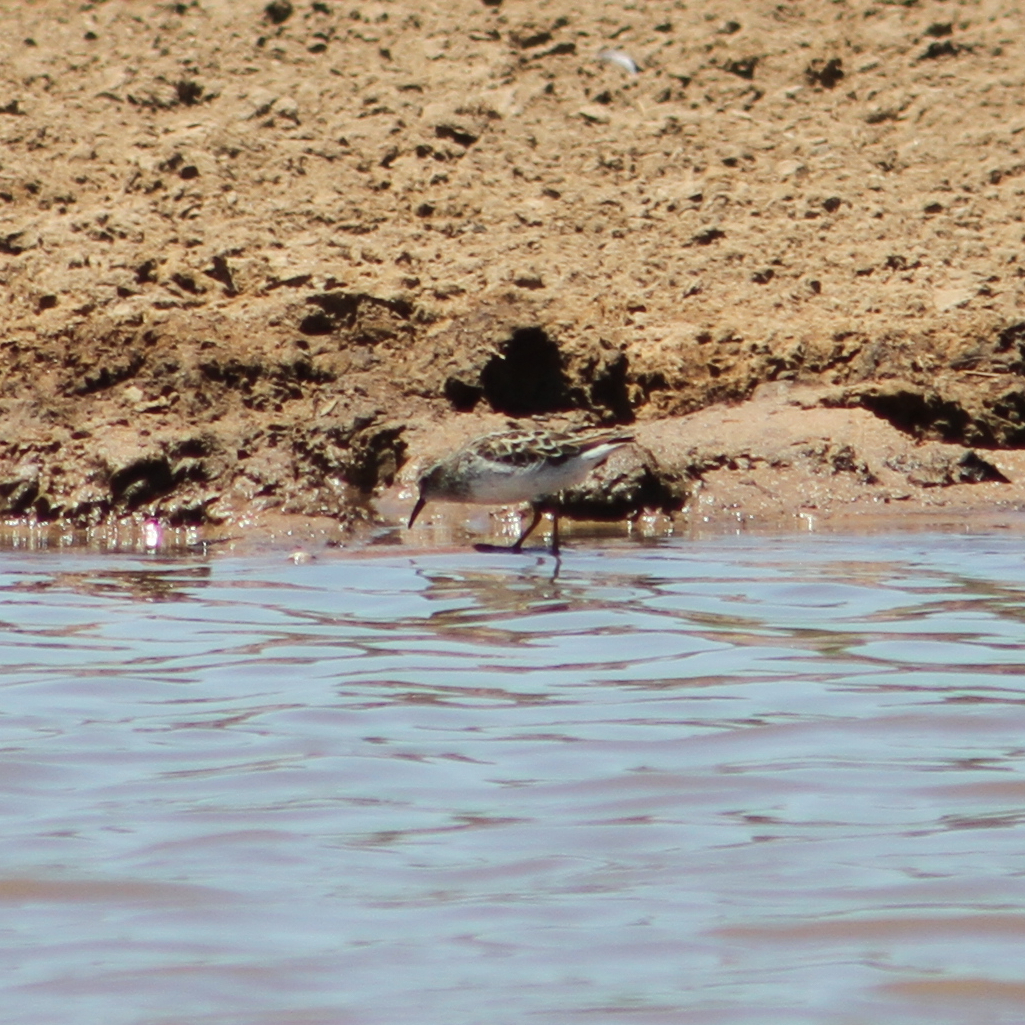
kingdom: Animalia
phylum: Chordata
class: Aves
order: Charadriiformes
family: Scolopacidae
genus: Calidris
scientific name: Calidris minutilla
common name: Least sandpiper
